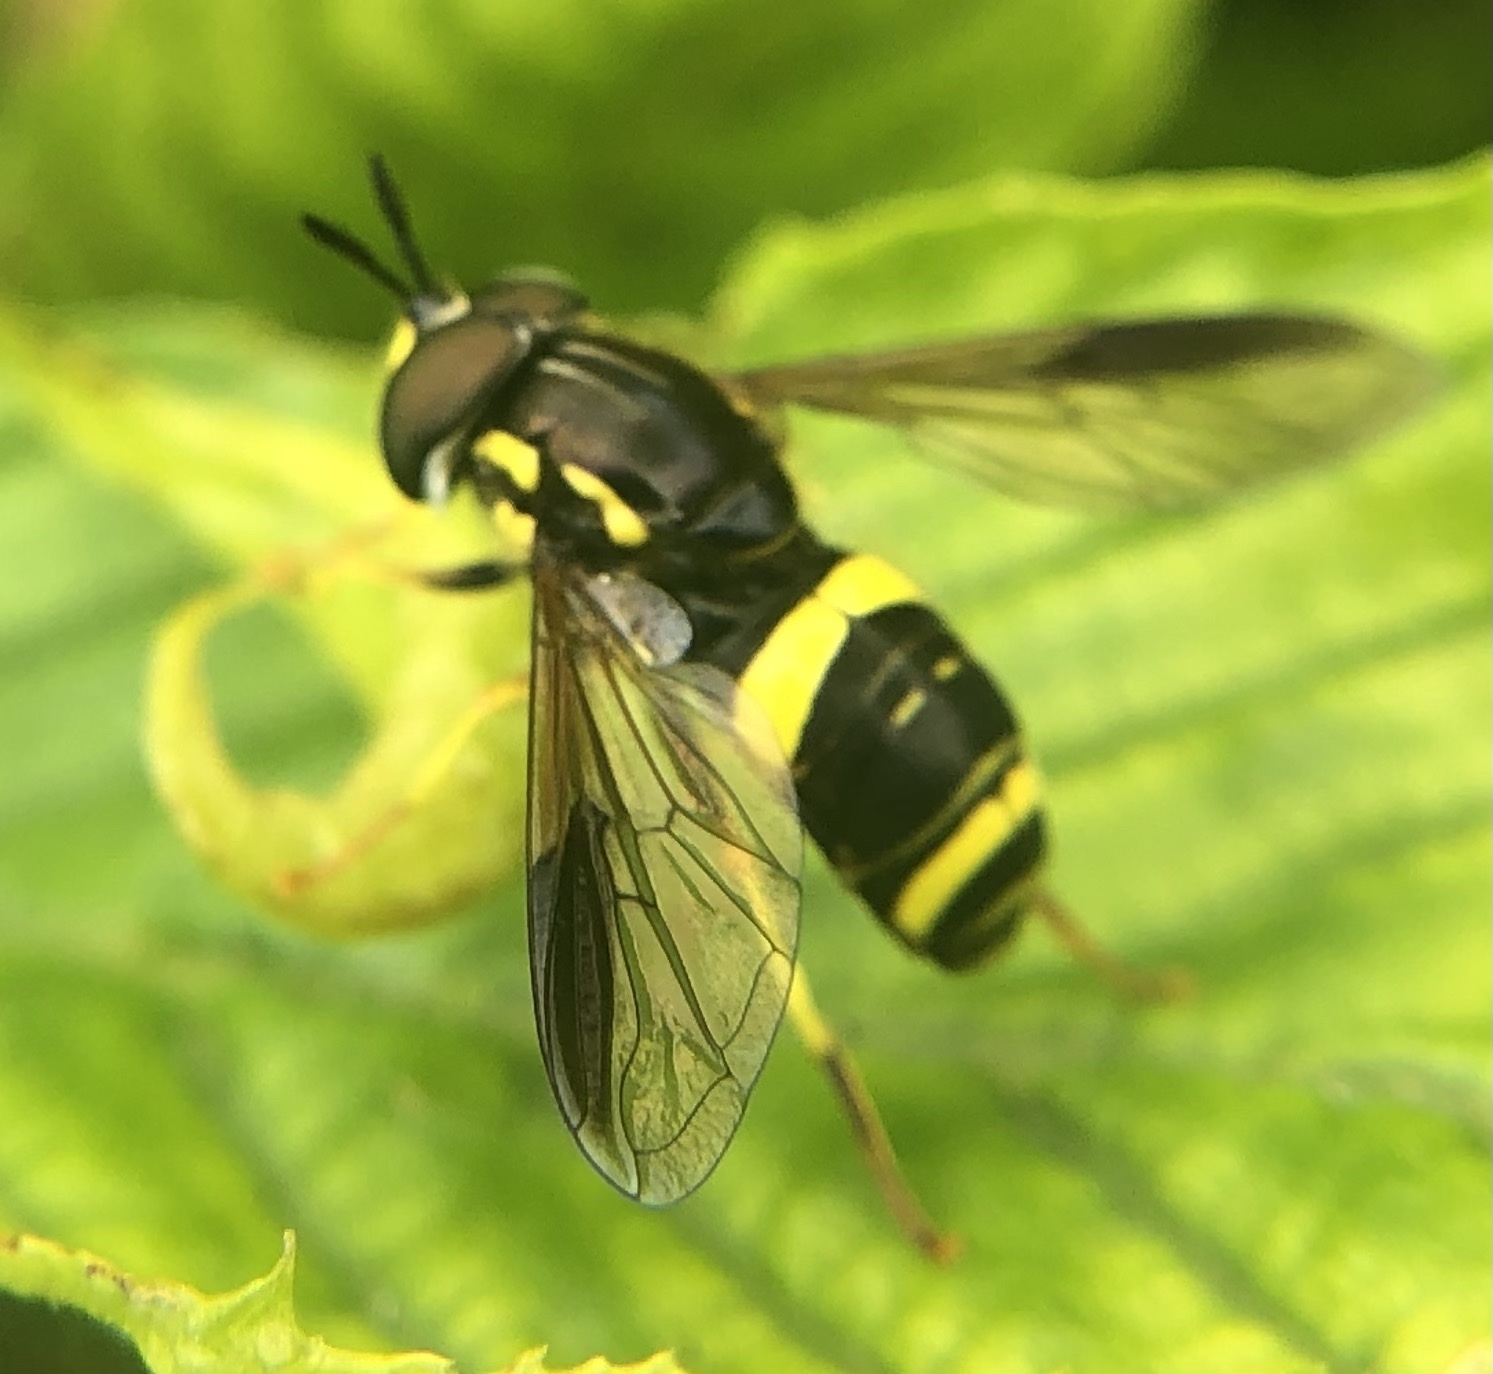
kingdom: Animalia
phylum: Arthropoda
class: Insecta
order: Diptera
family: Syrphidae
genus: Chrysotoxum
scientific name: Chrysotoxum bicincta
